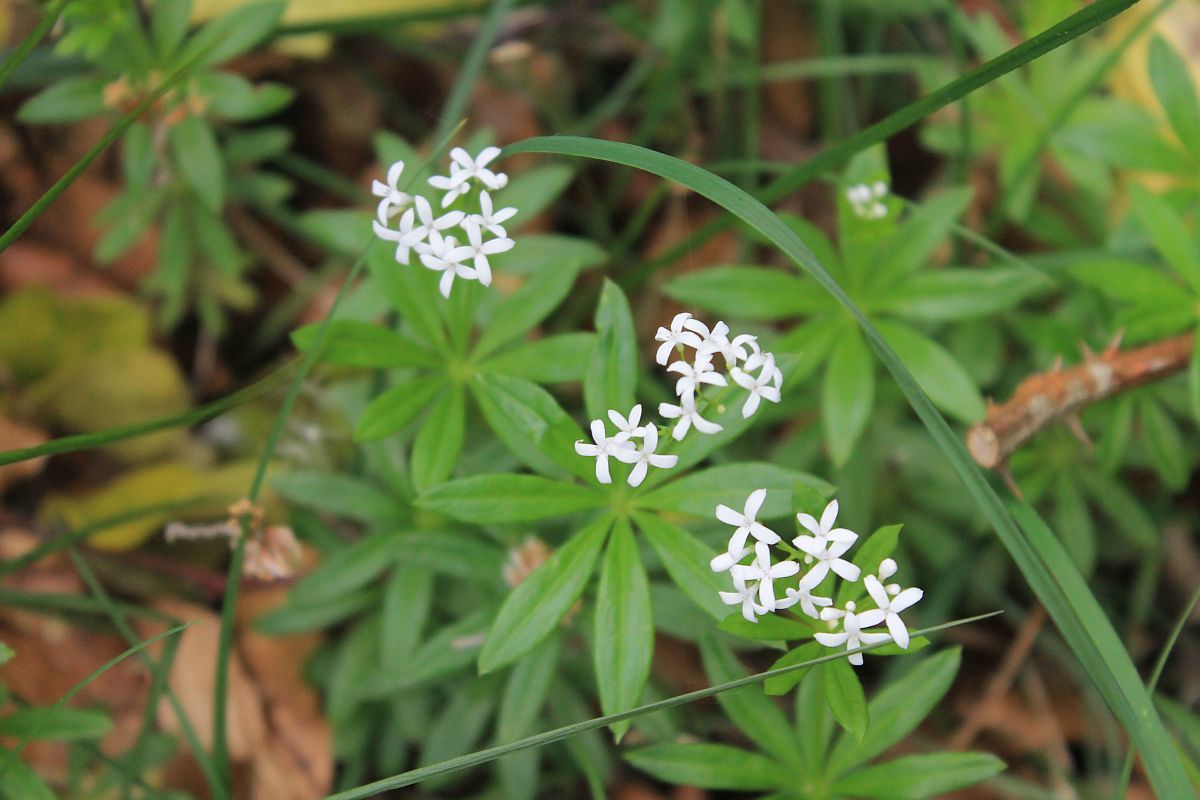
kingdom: Plantae
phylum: Tracheophyta
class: Magnoliopsida
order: Gentianales
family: Rubiaceae
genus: Galium
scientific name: Galium odoratum
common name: Sweet woodruff
